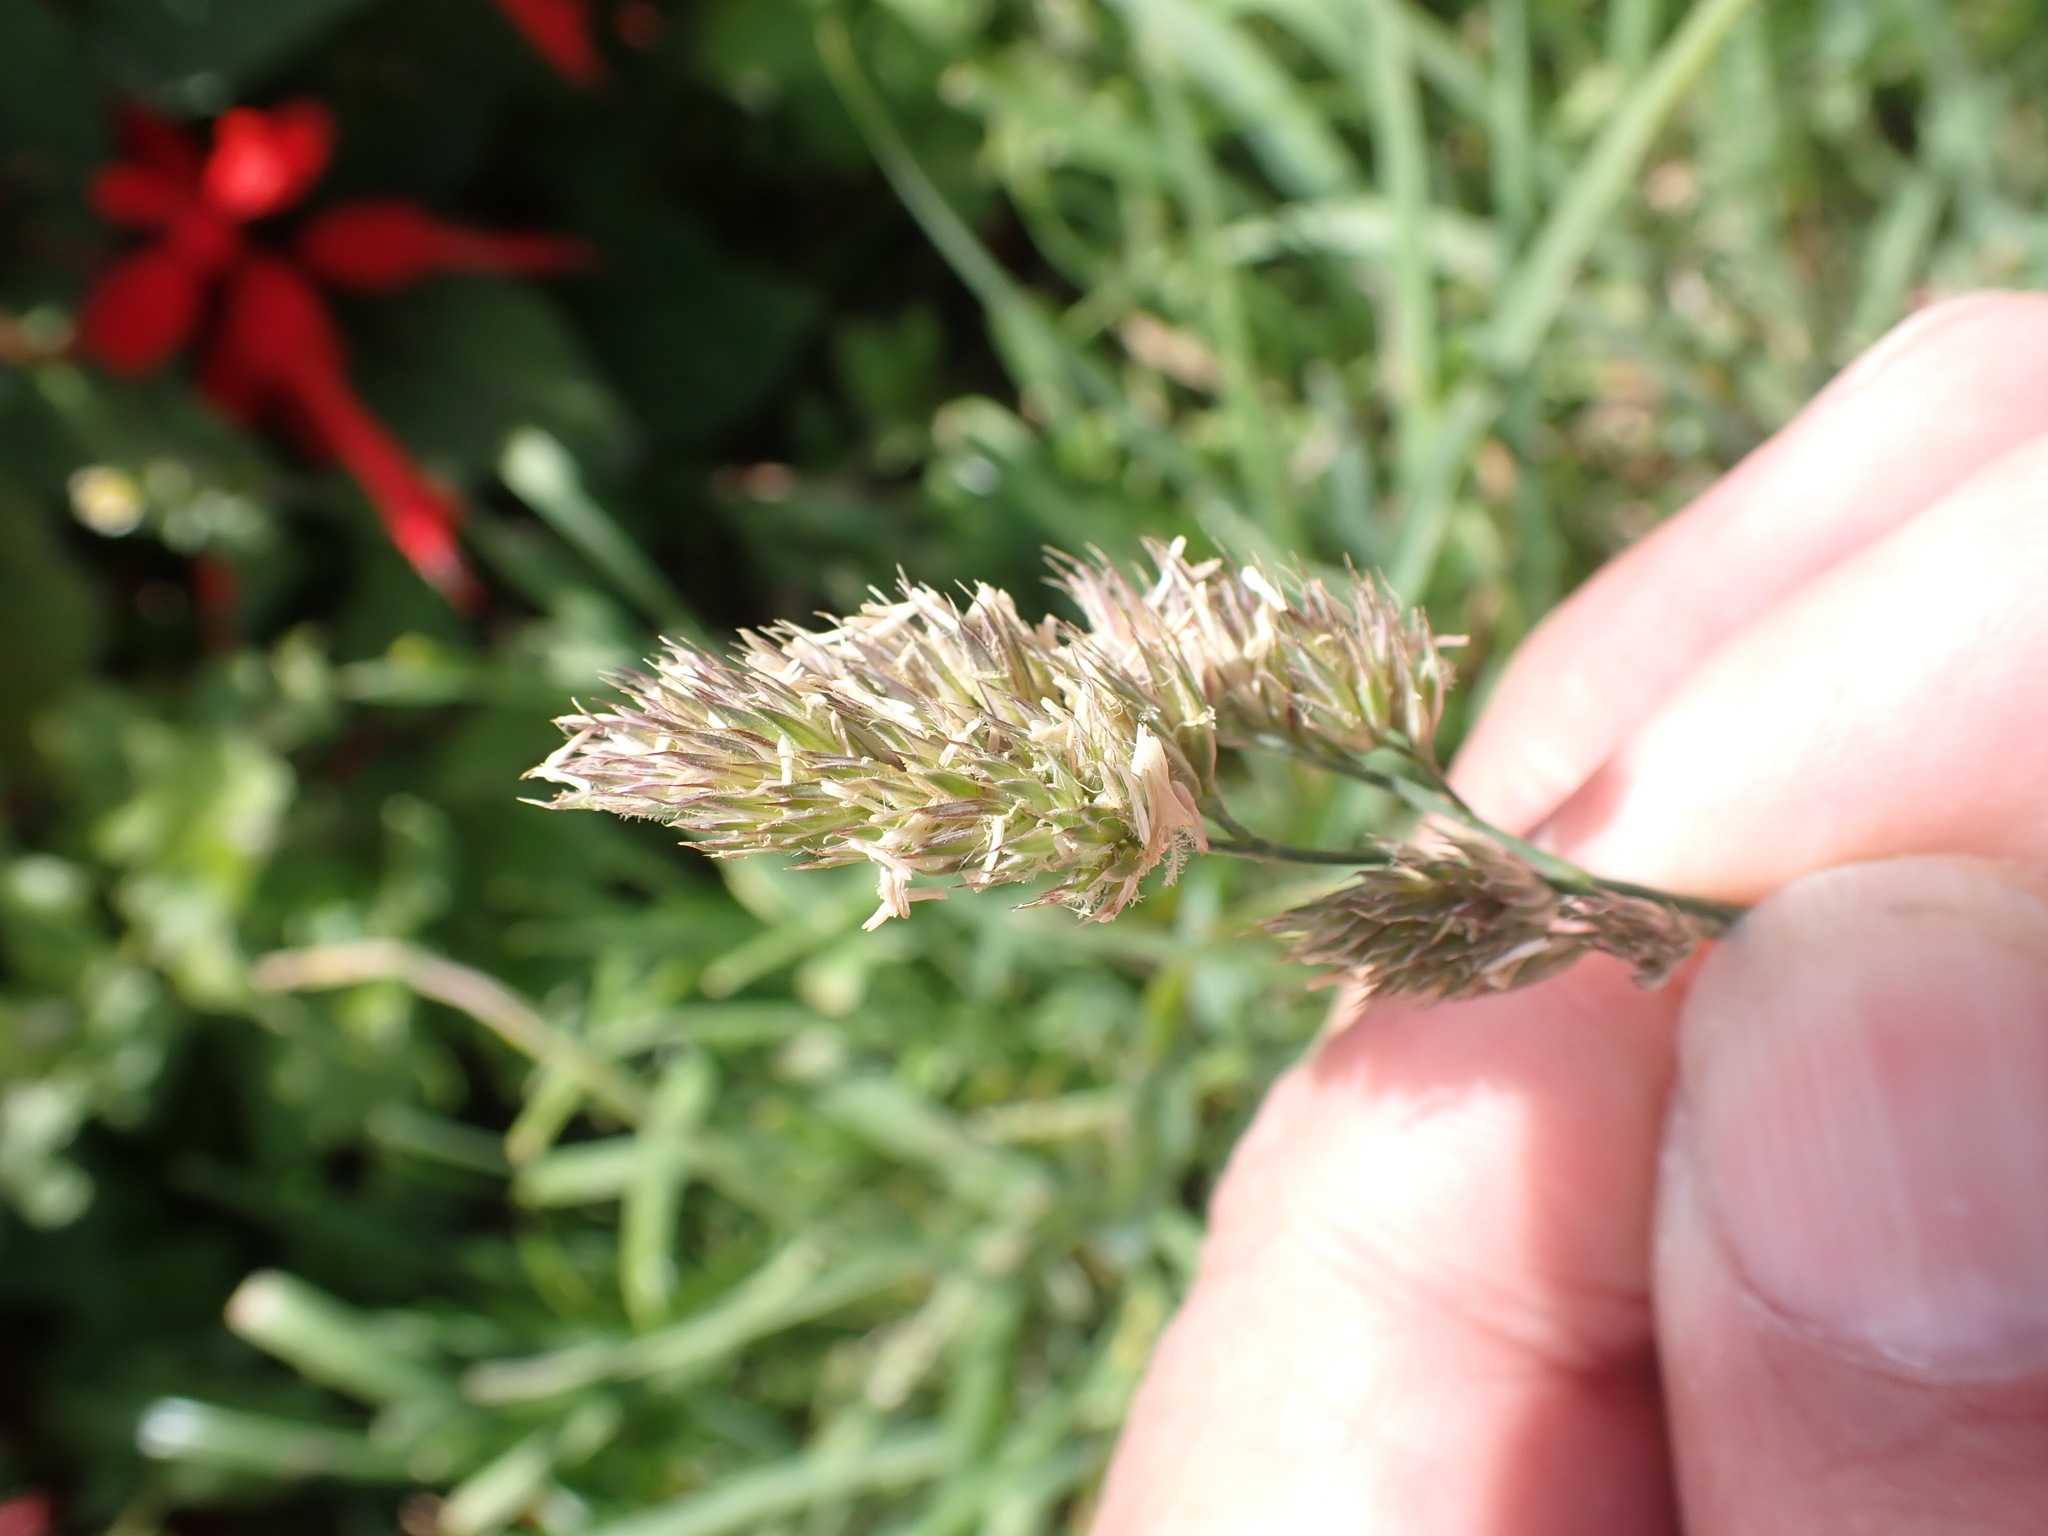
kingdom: Plantae
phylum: Tracheophyta
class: Liliopsida
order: Poales
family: Poaceae
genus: Dactylis
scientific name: Dactylis glomerata
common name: Orchardgrass
